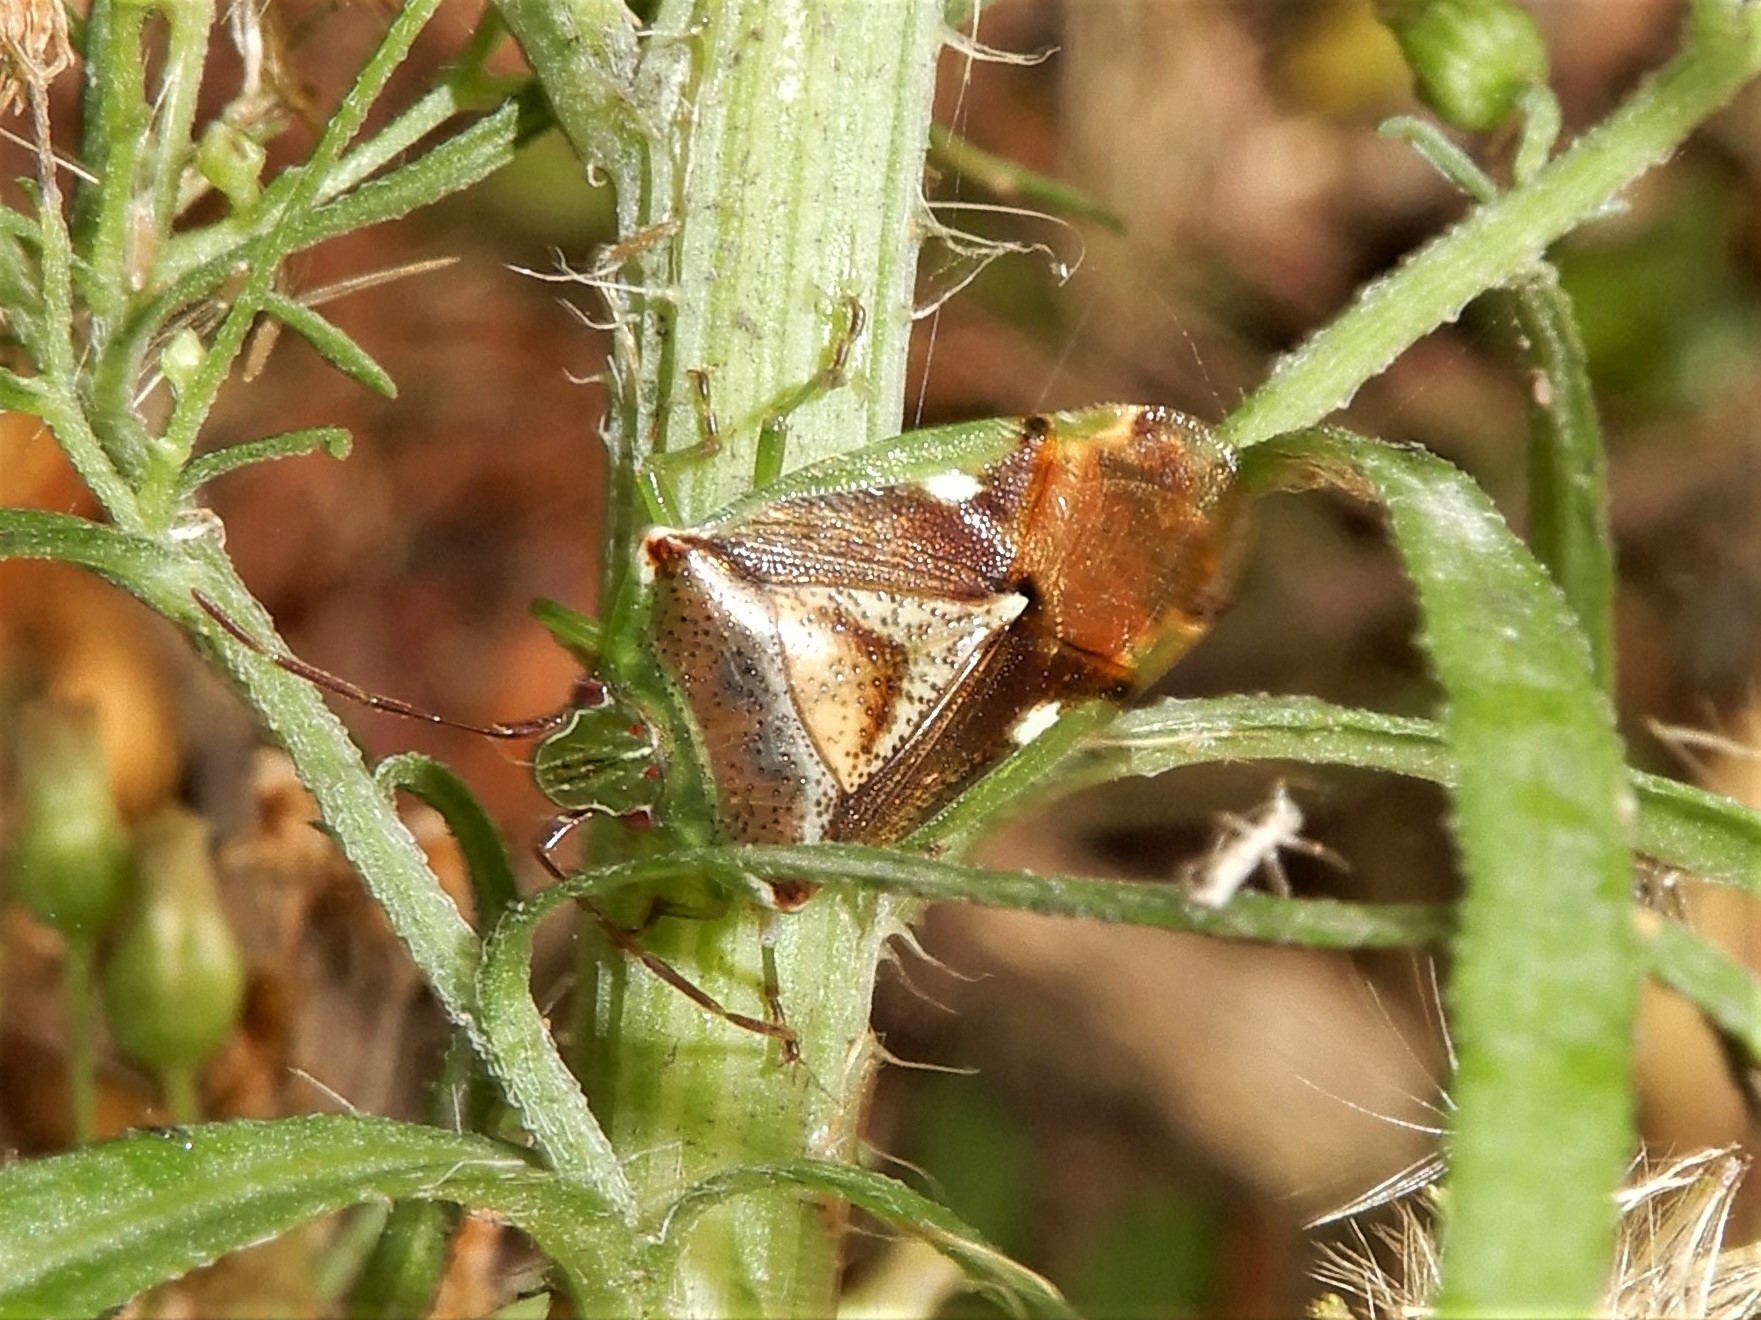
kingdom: Animalia
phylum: Arthropoda
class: Insecta
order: Hemiptera
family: Acanthosomatidae
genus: Oncacontias
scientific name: Oncacontias vittatus
